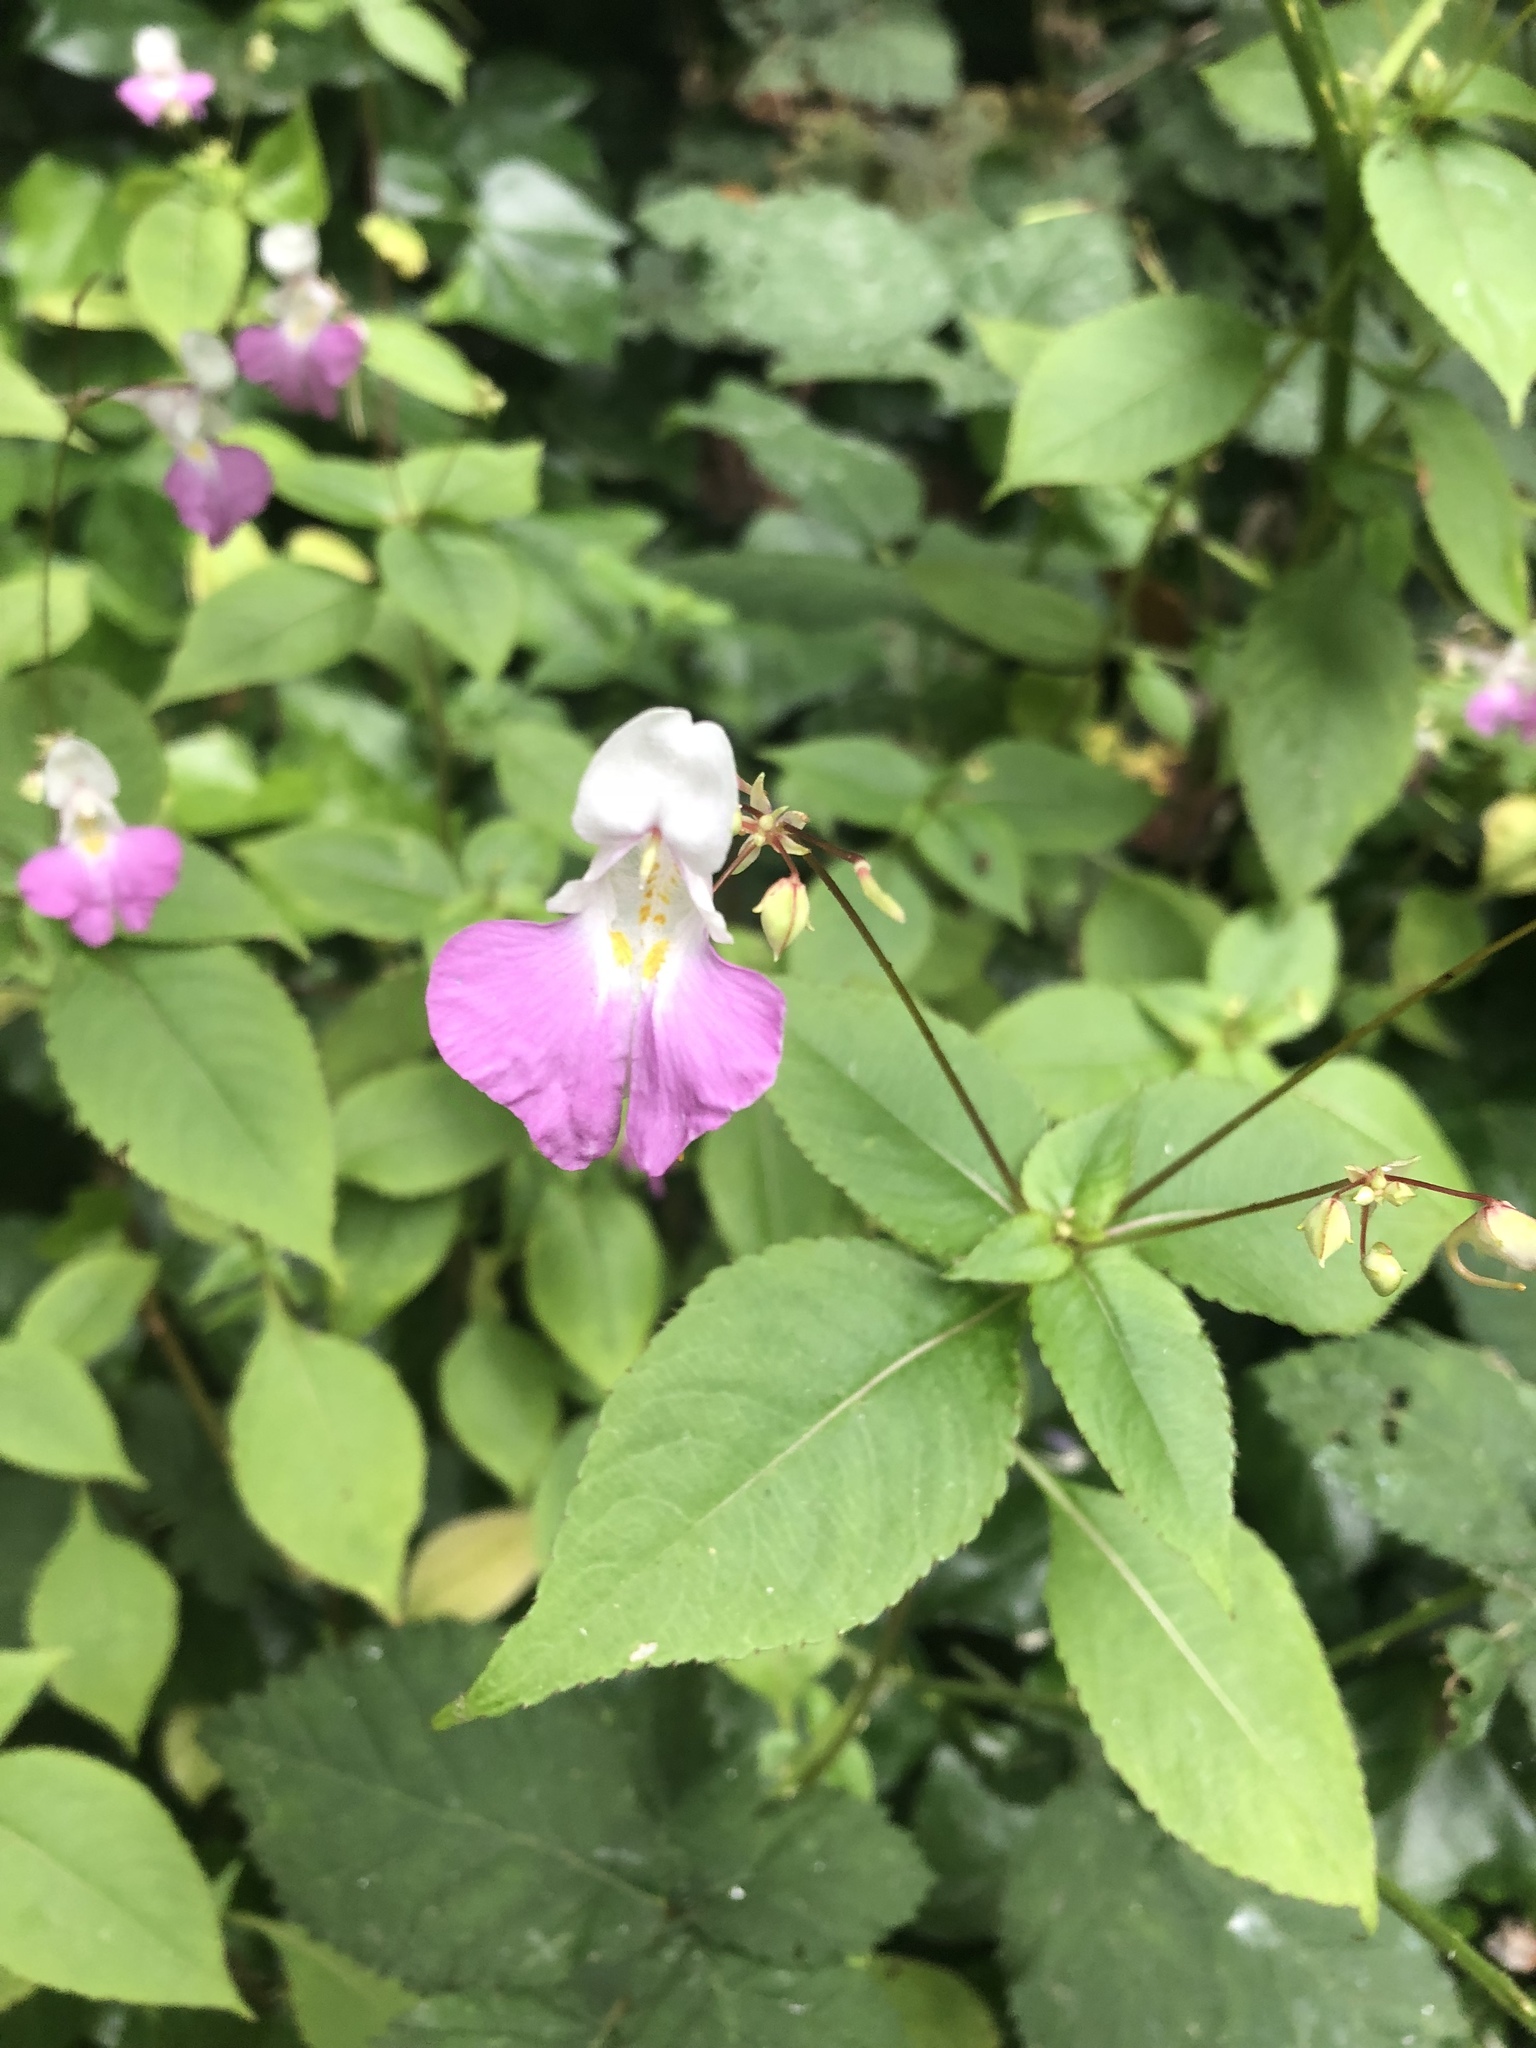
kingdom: Plantae
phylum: Tracheophyta
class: Magnoliopsida
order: Ericales
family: Balsaminaceae
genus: Impatiens
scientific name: Impatiens balfourii
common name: Balfour's touch-me-not
